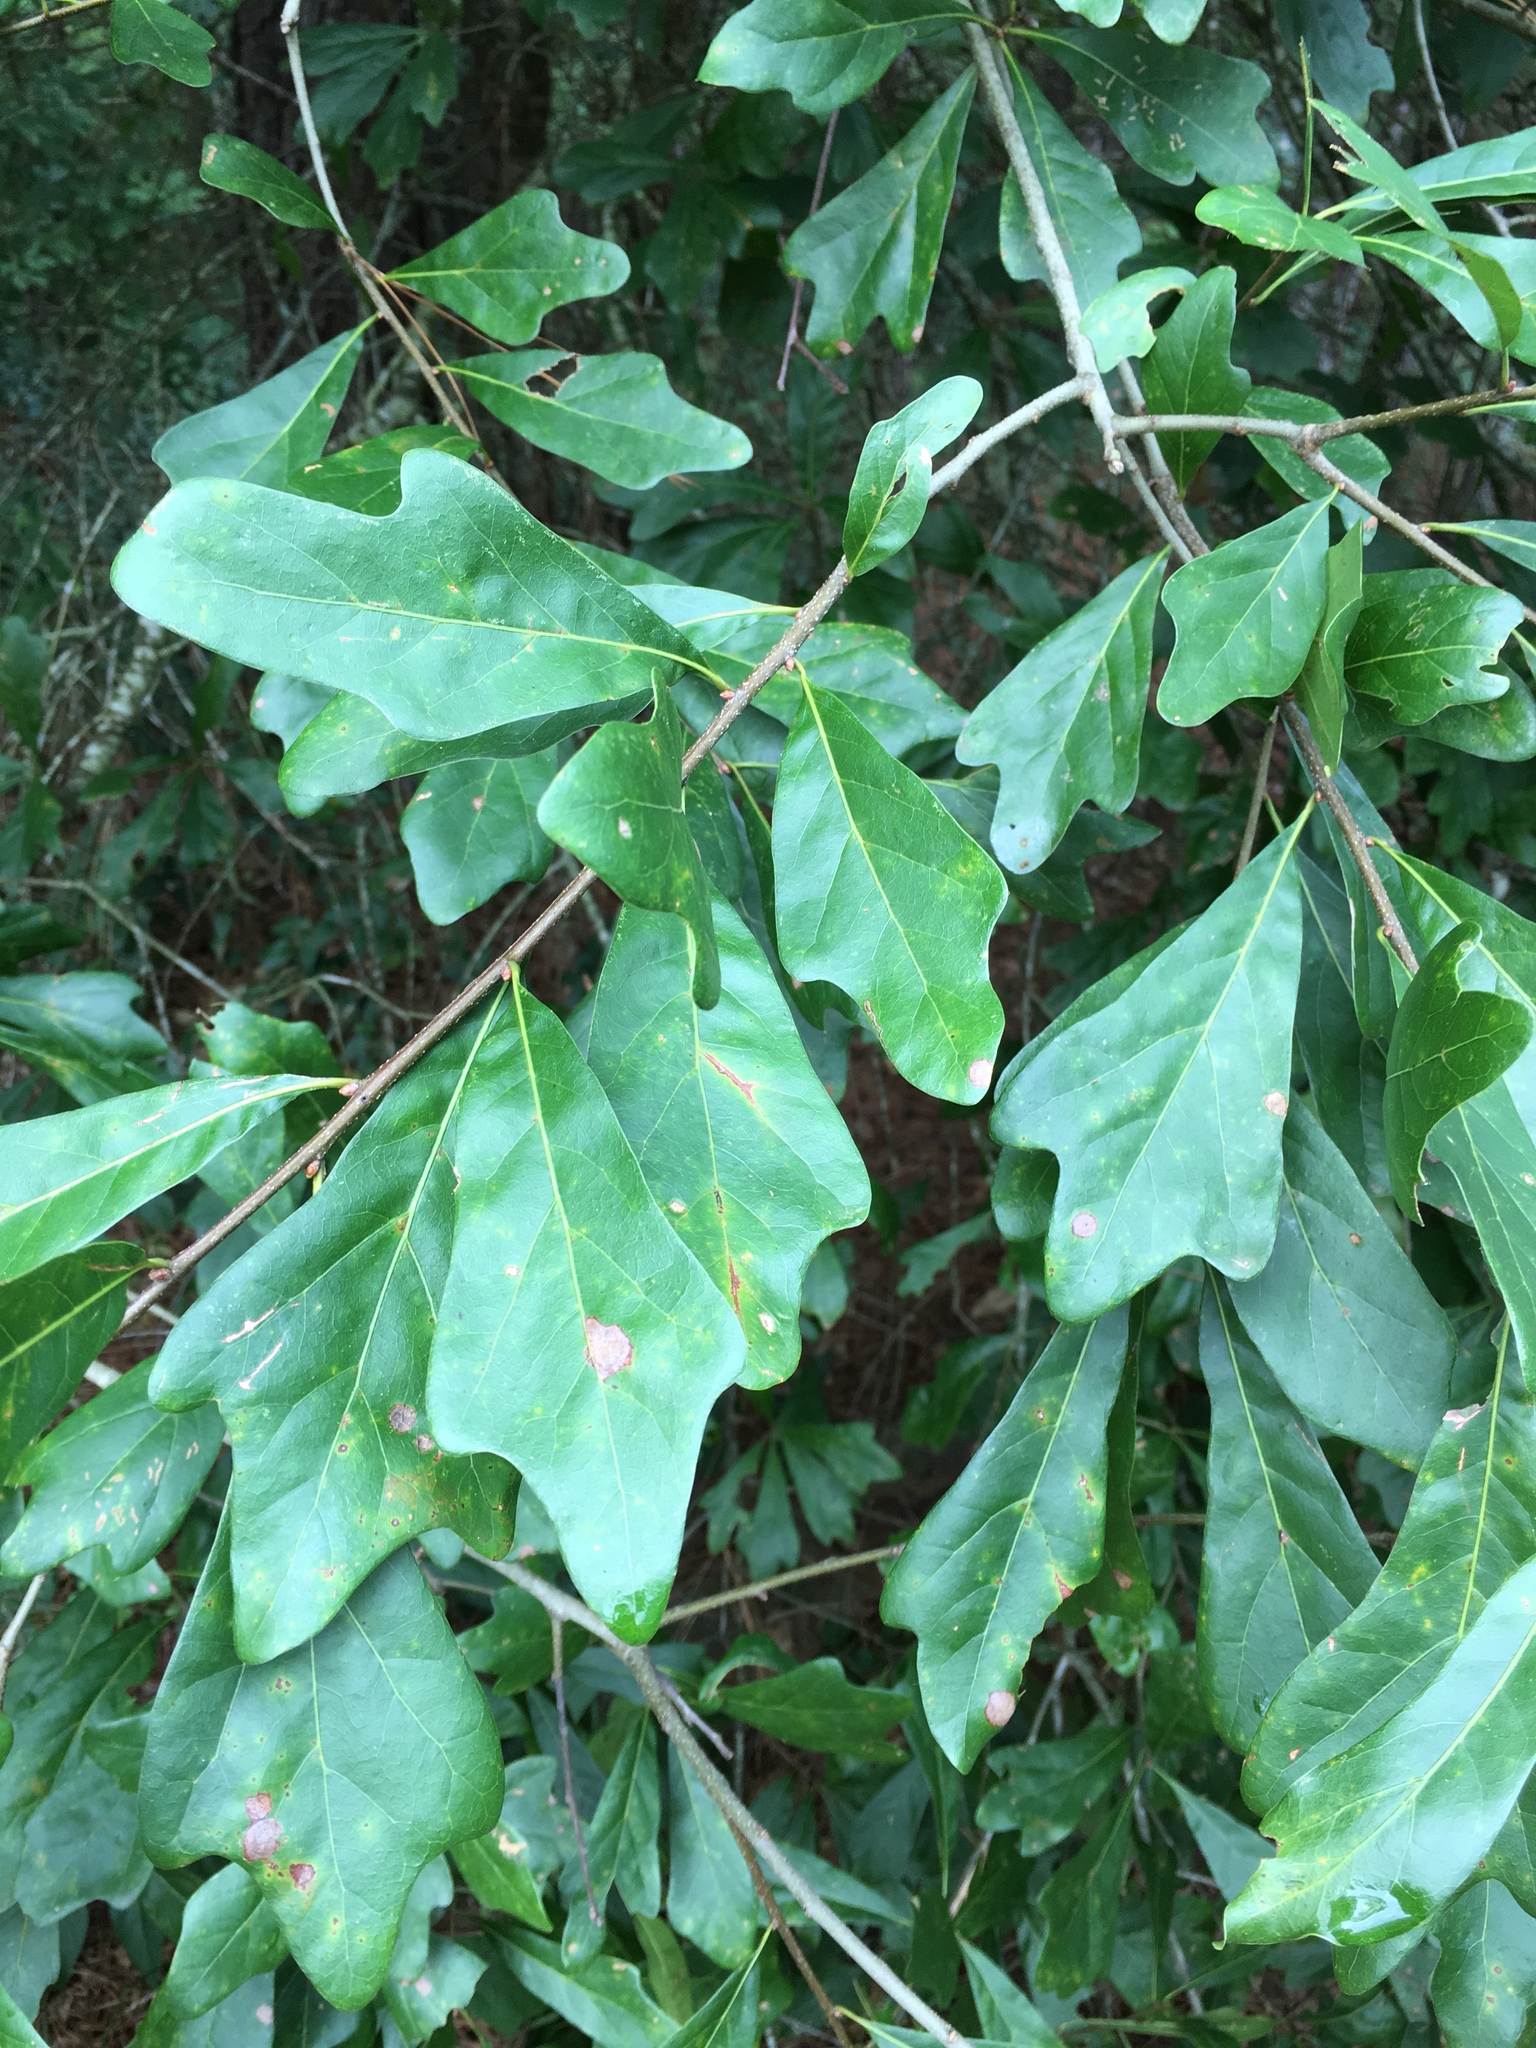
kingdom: Plantae
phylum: Tracheophyta
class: Magnoliopsida
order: Fagales
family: Fagaceae
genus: Quercus
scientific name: Quercus nigra
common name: Water oak
